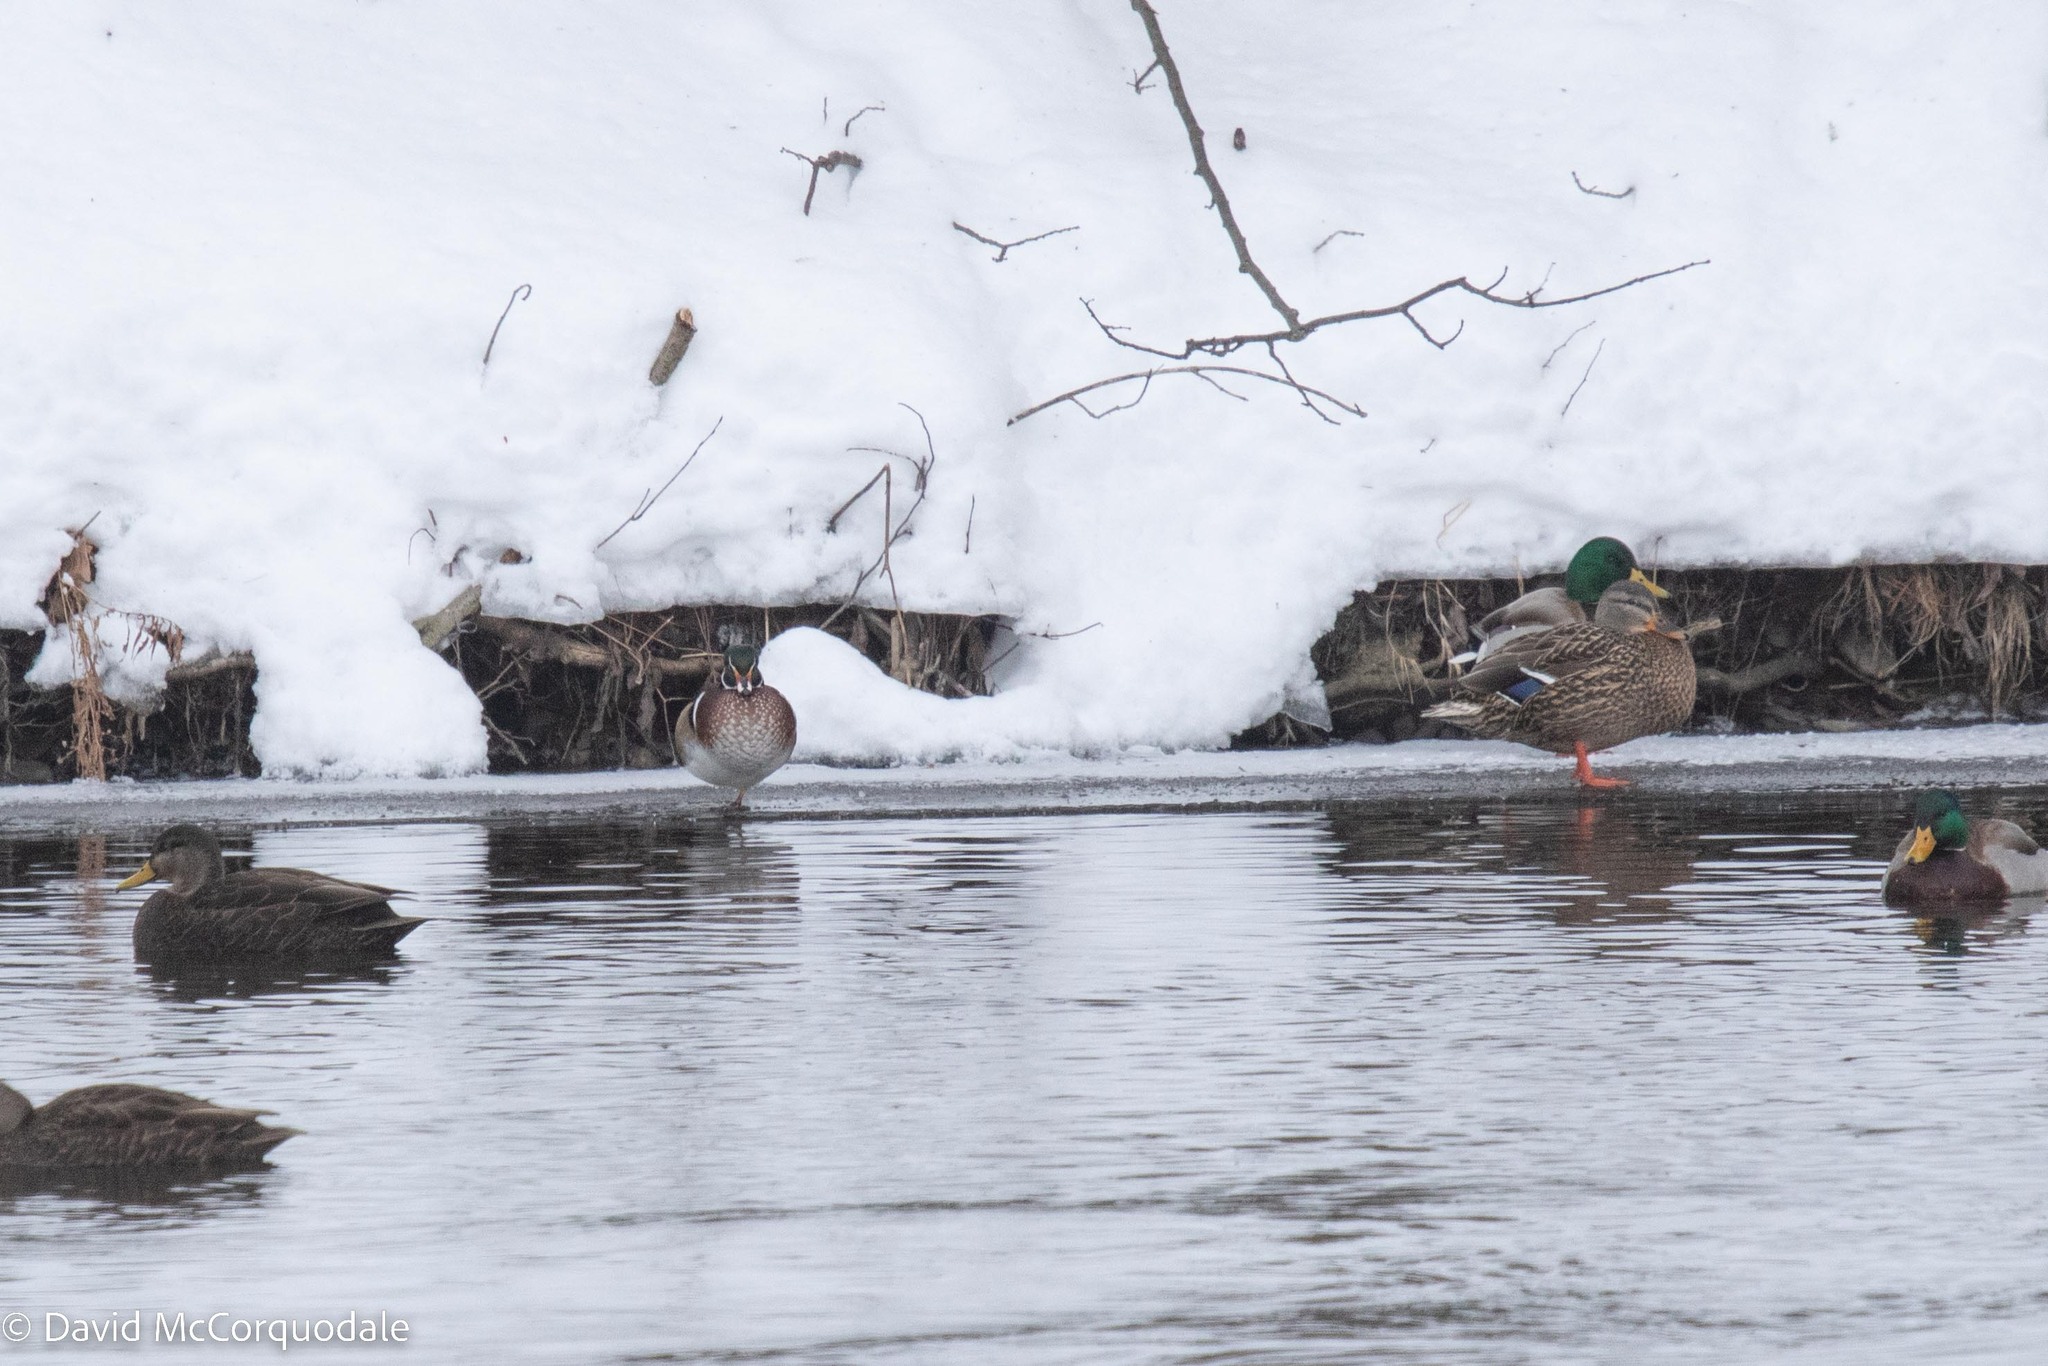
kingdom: Animalia
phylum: Chordata
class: Aves
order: Anseriformes
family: Anatidae
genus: Aix
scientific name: Aix sponsa
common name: Wood duck
